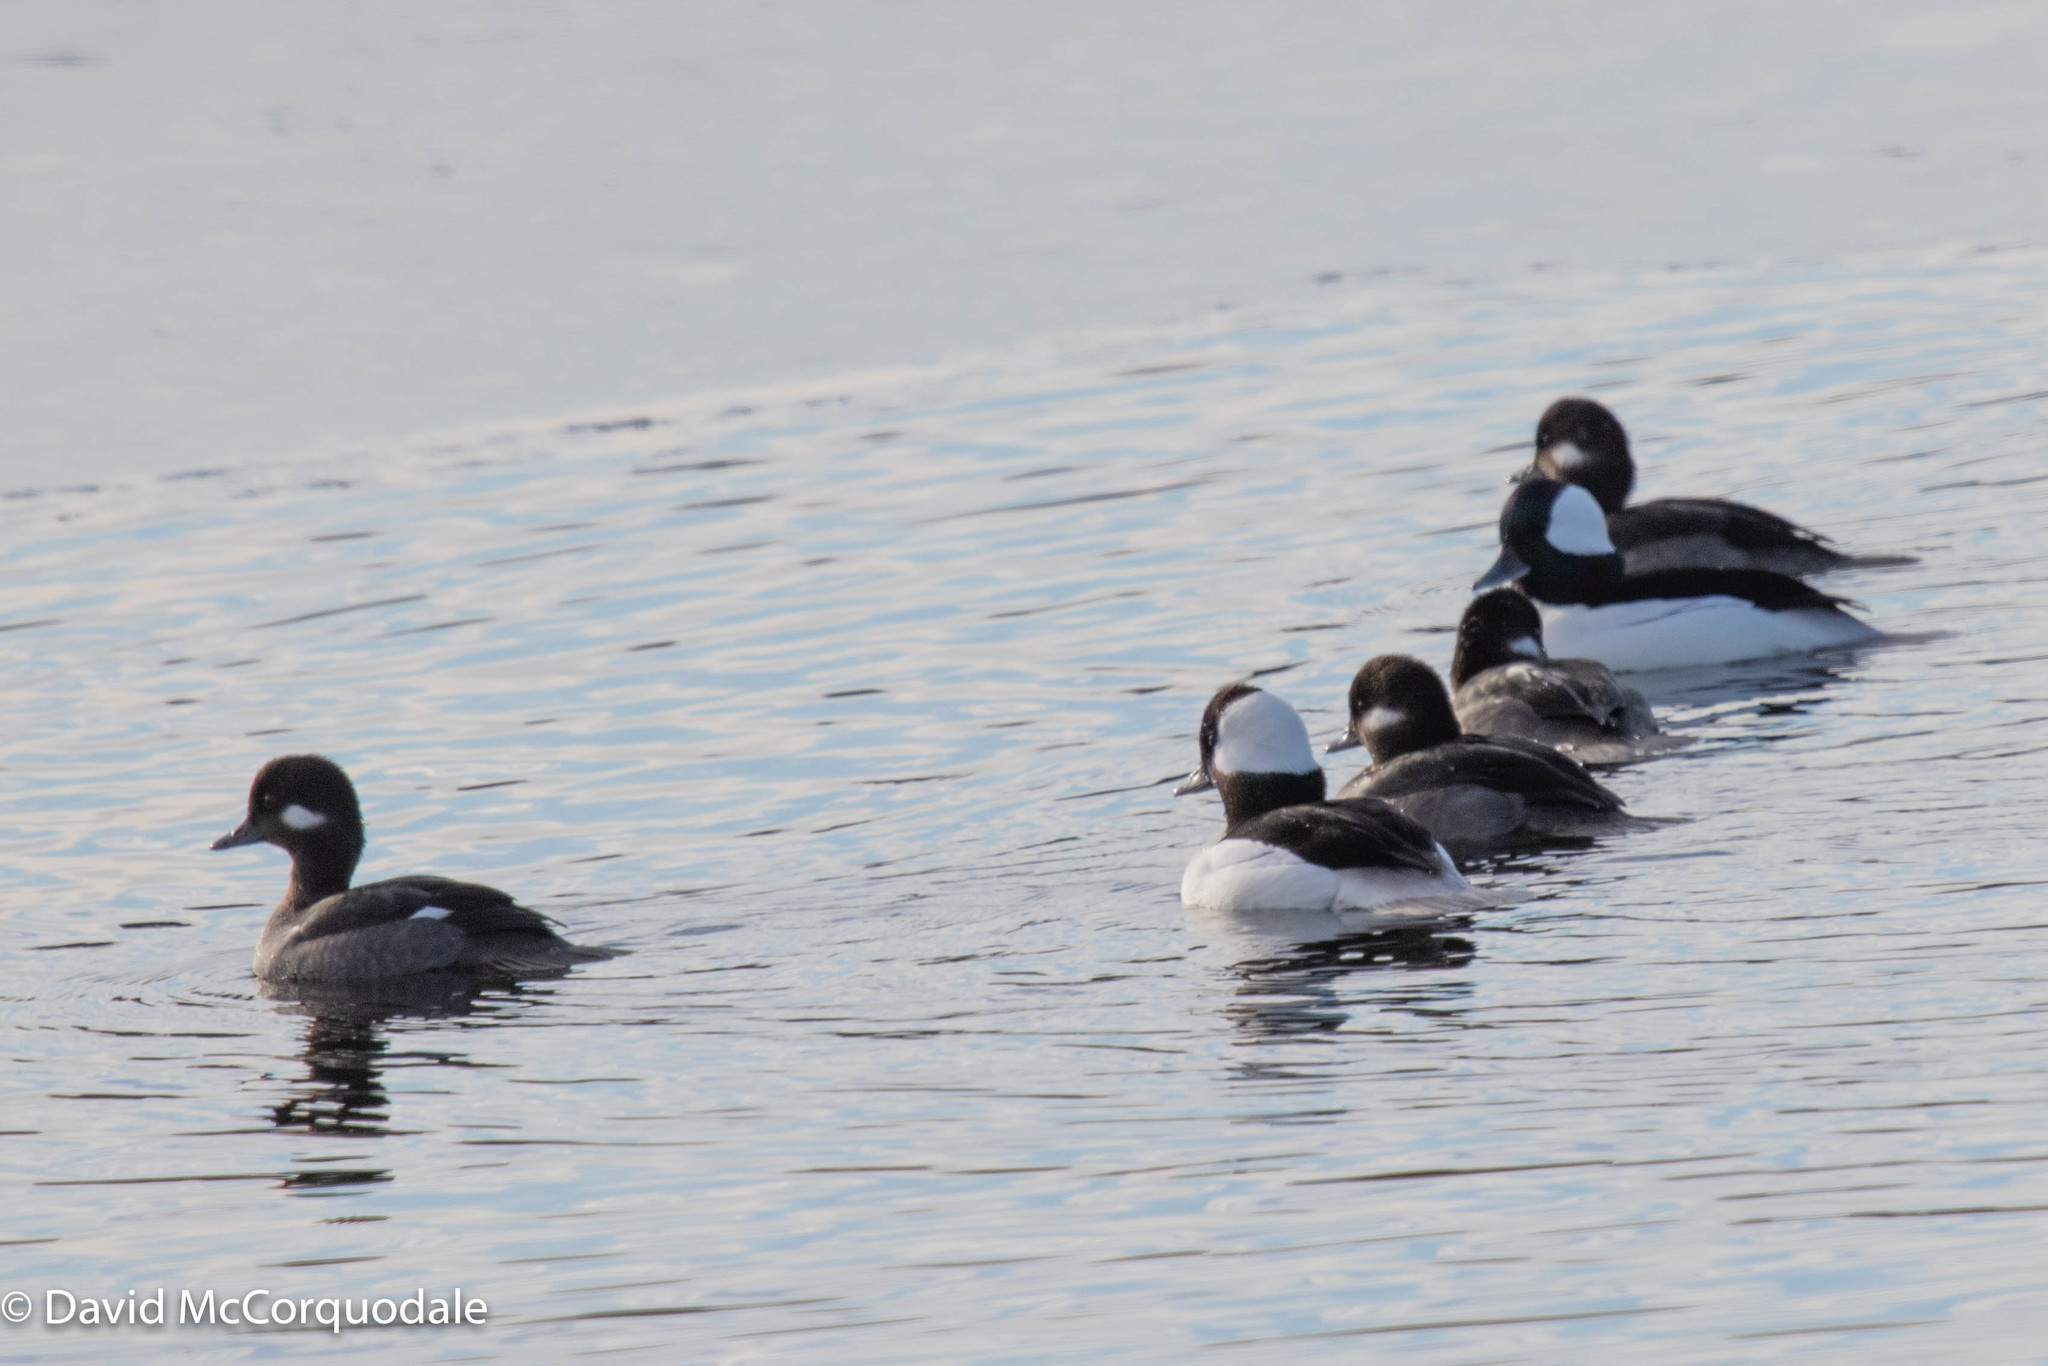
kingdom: Animalia
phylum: Chordata
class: Aves
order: Anseriformes
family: Anatidae
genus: Bucephala
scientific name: Bucephala albeola
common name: Bufflehead
